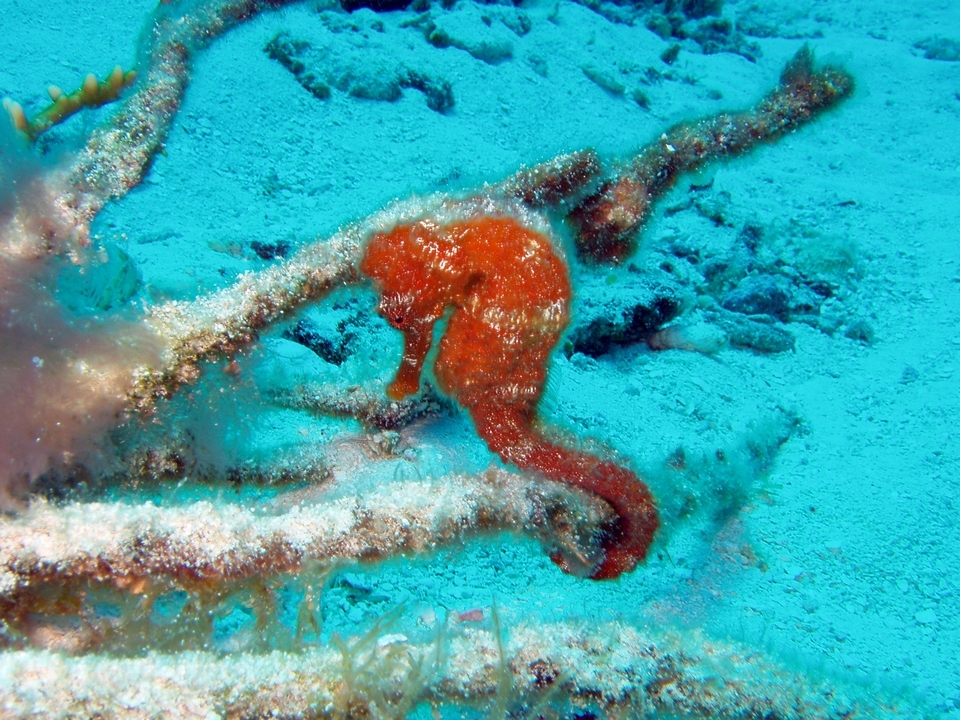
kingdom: Animalia
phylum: Chordata
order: Syngnathiformes
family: Syngnathidae
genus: Hippocampus
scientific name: Hippocampus reidi
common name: Slender seahorse
